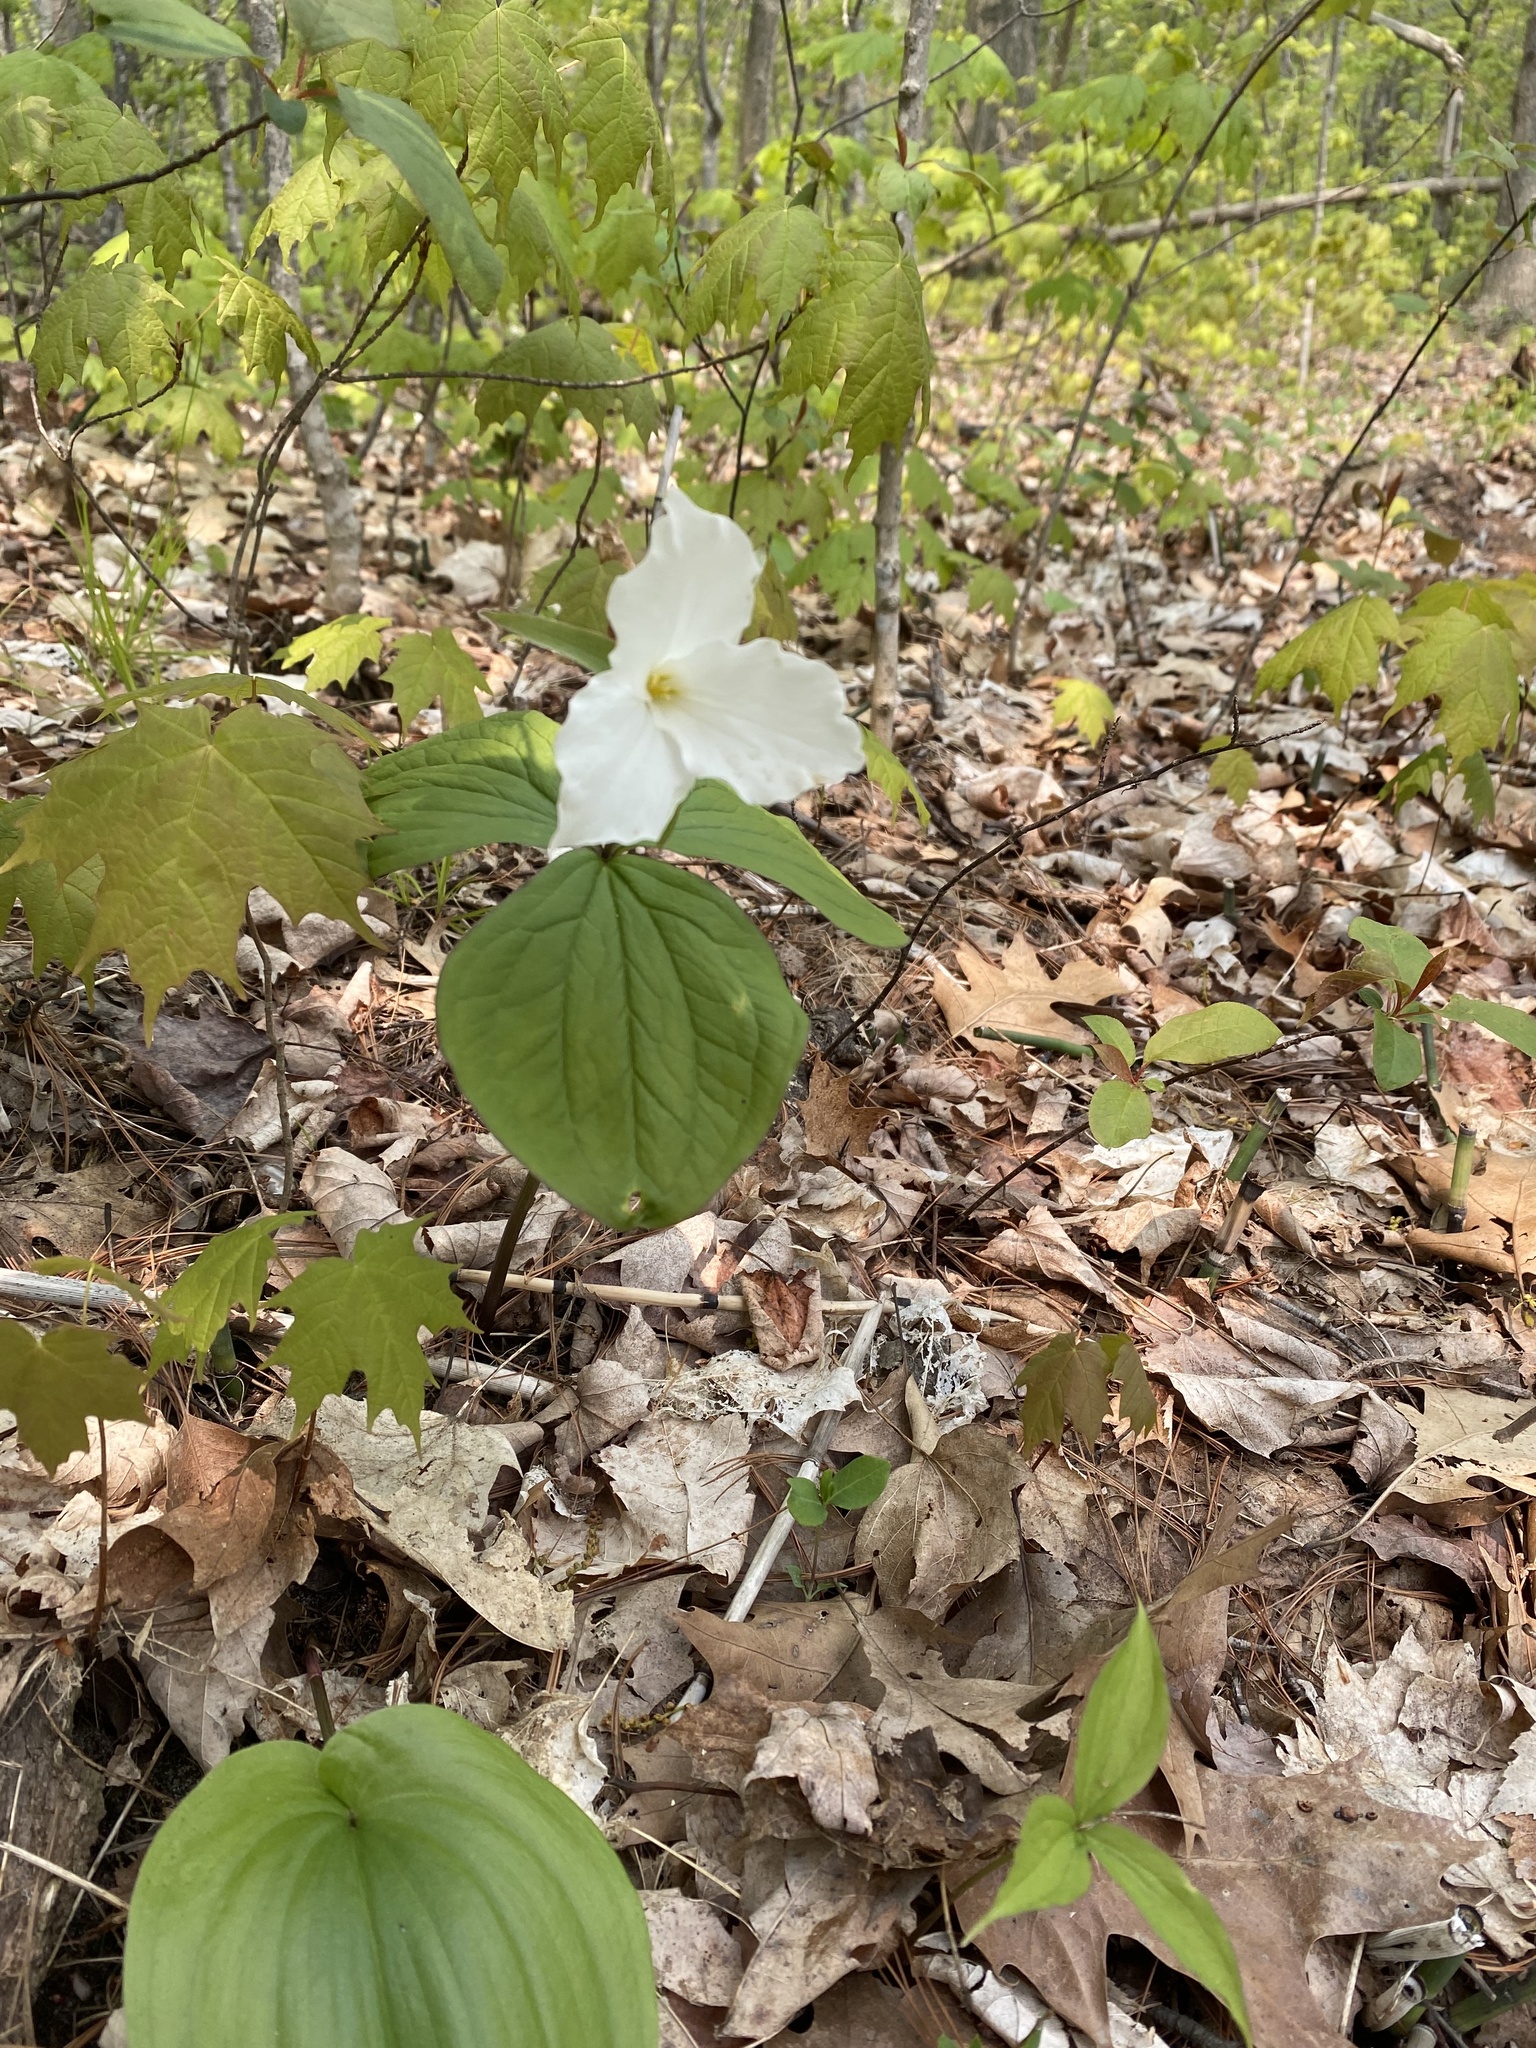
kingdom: Plantae
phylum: Tracheophyta
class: Liliopsida
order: Liliales
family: Melanthiaceae
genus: Trillium
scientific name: Trillium grandiflorum
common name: Great white trillium
